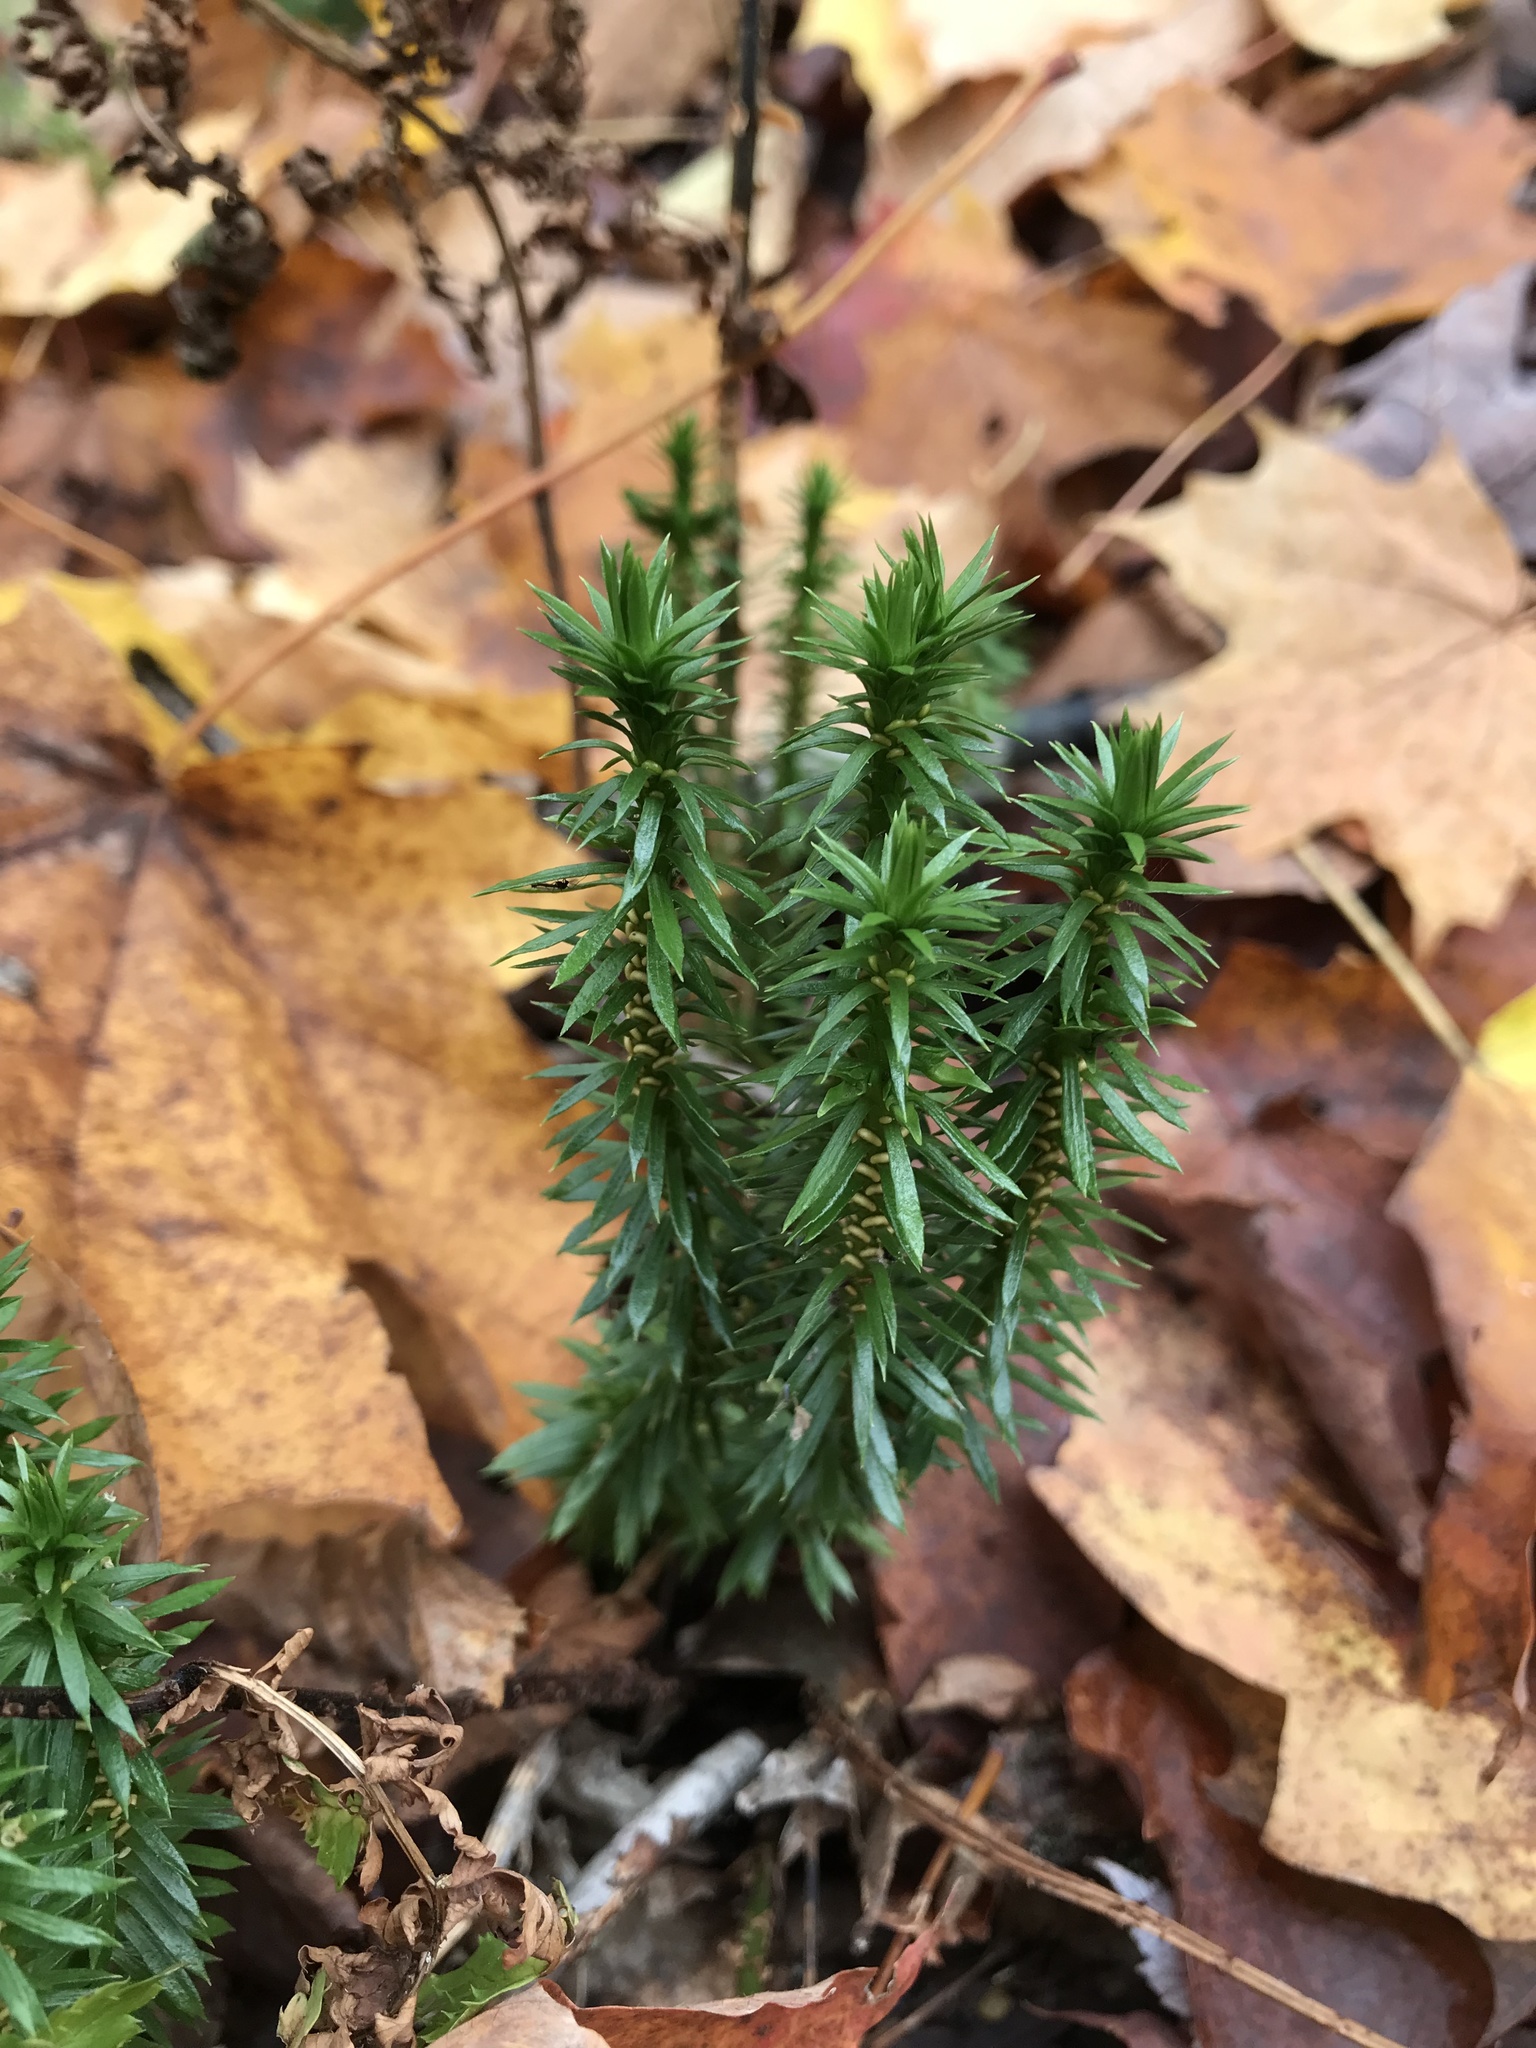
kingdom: Plantae
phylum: Tracheophyta
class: Lycopodiopsida
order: Lycopodiales
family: Lycopodiaceae
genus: Huperzia
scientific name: Huperzia lucidula
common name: Shining clubmoss
